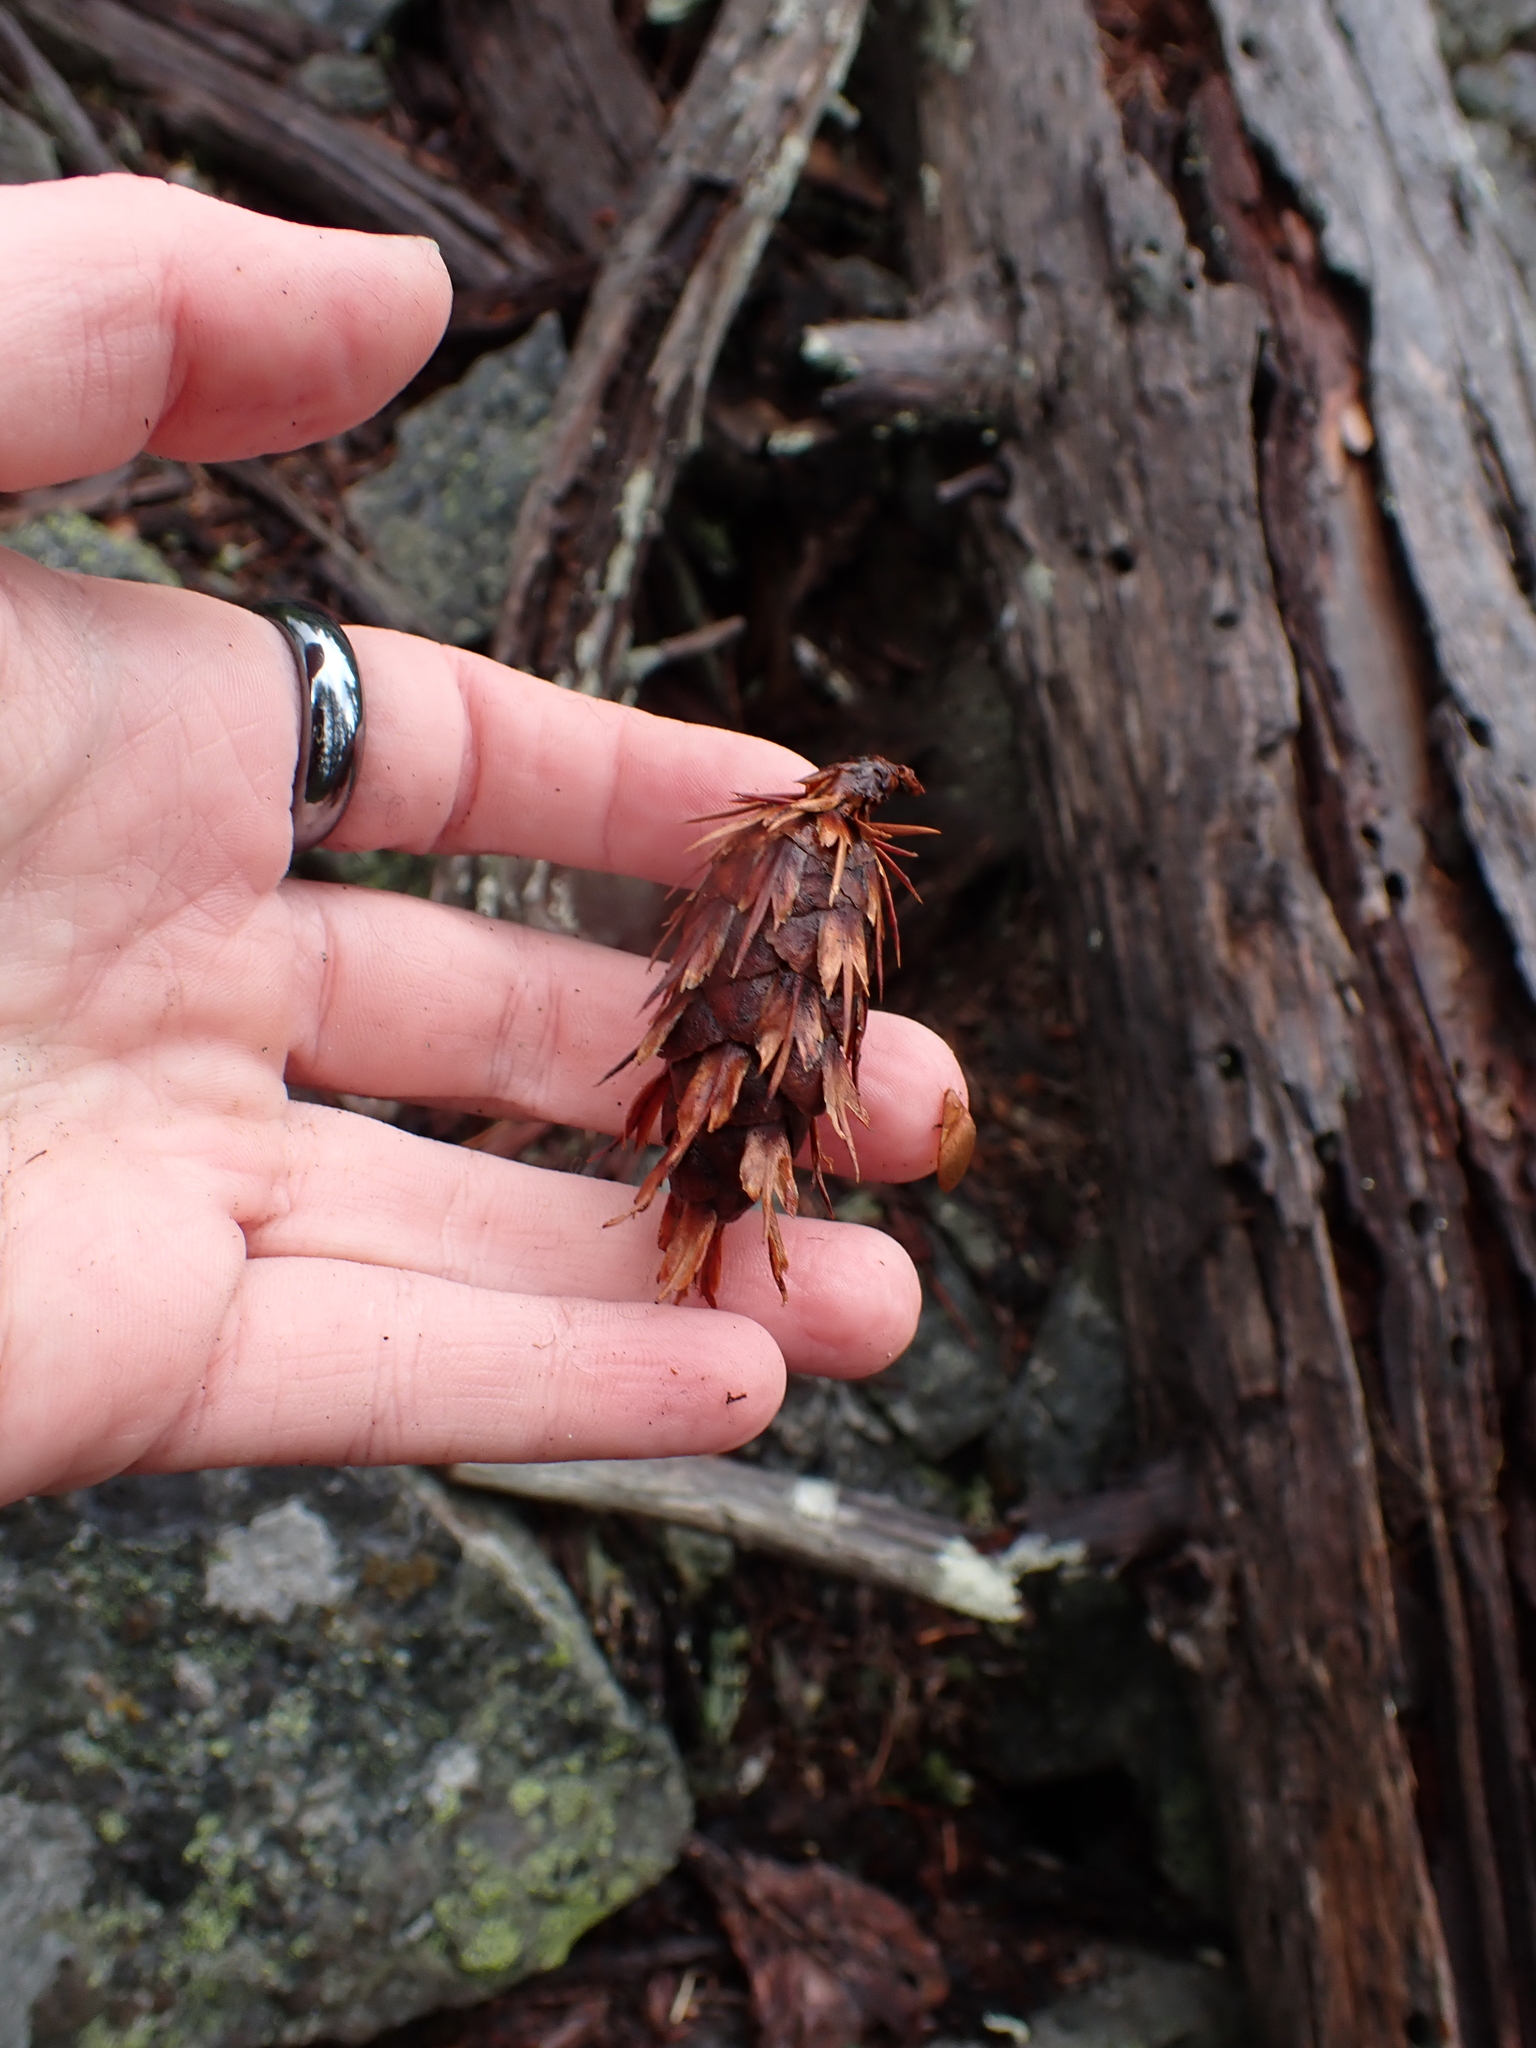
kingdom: Plantae
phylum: Tracheophyta
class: Pinopsida
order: Pinales
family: Pinaceae
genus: Pseudotsuga
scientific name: Pseudotsuga menziesii
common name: Douglas fir
